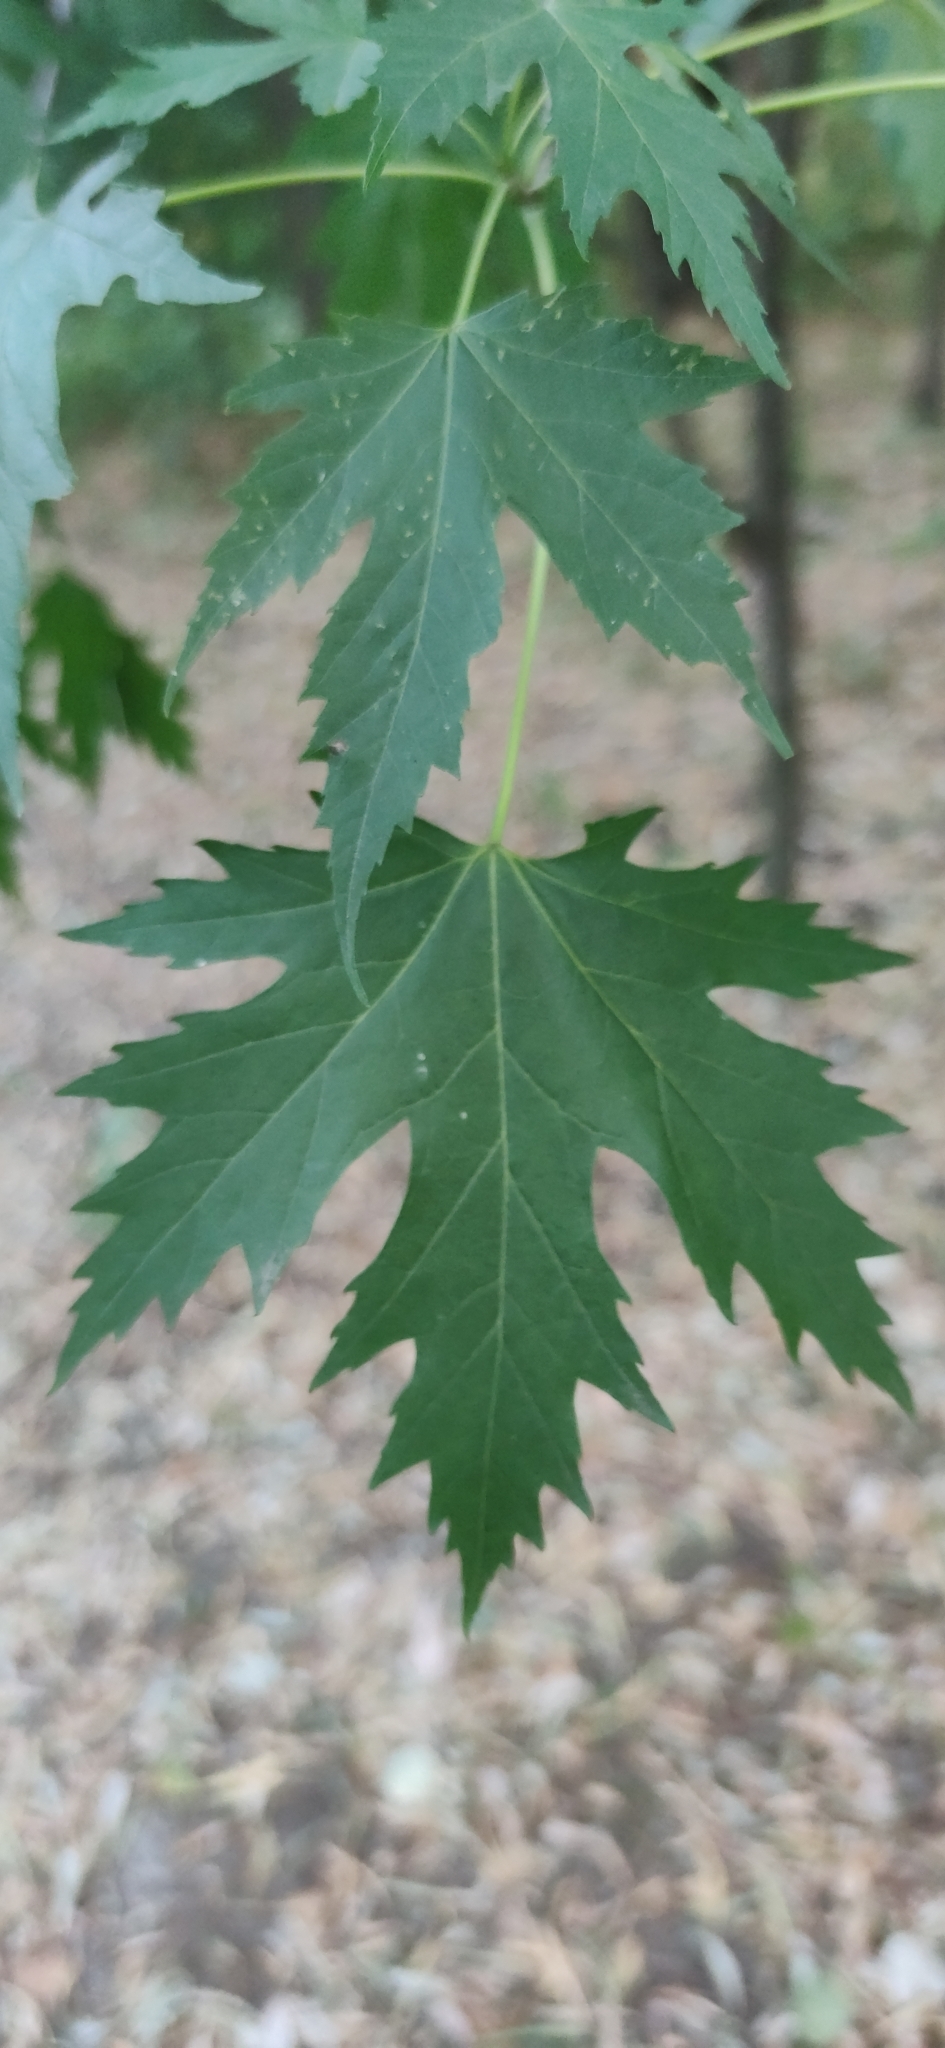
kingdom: Plantae
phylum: Tracheophyta
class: Magnoliopsida
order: Sapindales
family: Sapindaceae
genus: Acer
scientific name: Acer saccharinum
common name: Silver maple
